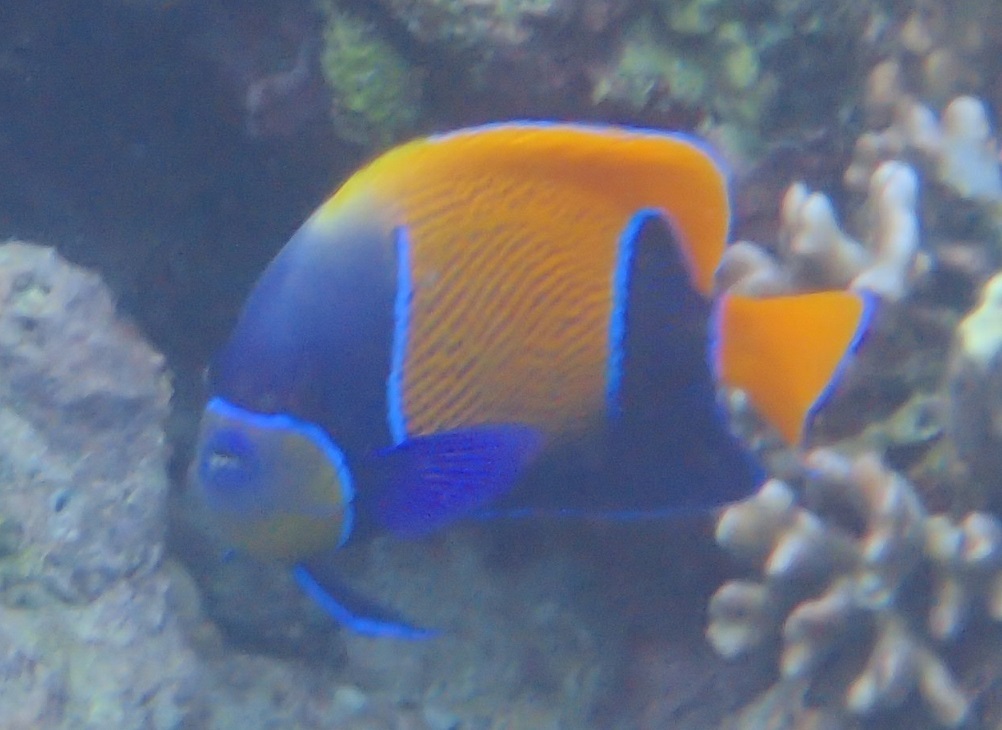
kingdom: Animalia
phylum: Chordata
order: Perciformes
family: Pomacanthidae
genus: Pomacanthus
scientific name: Pomacanthus navarchus
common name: Blue-girdled angelfish
